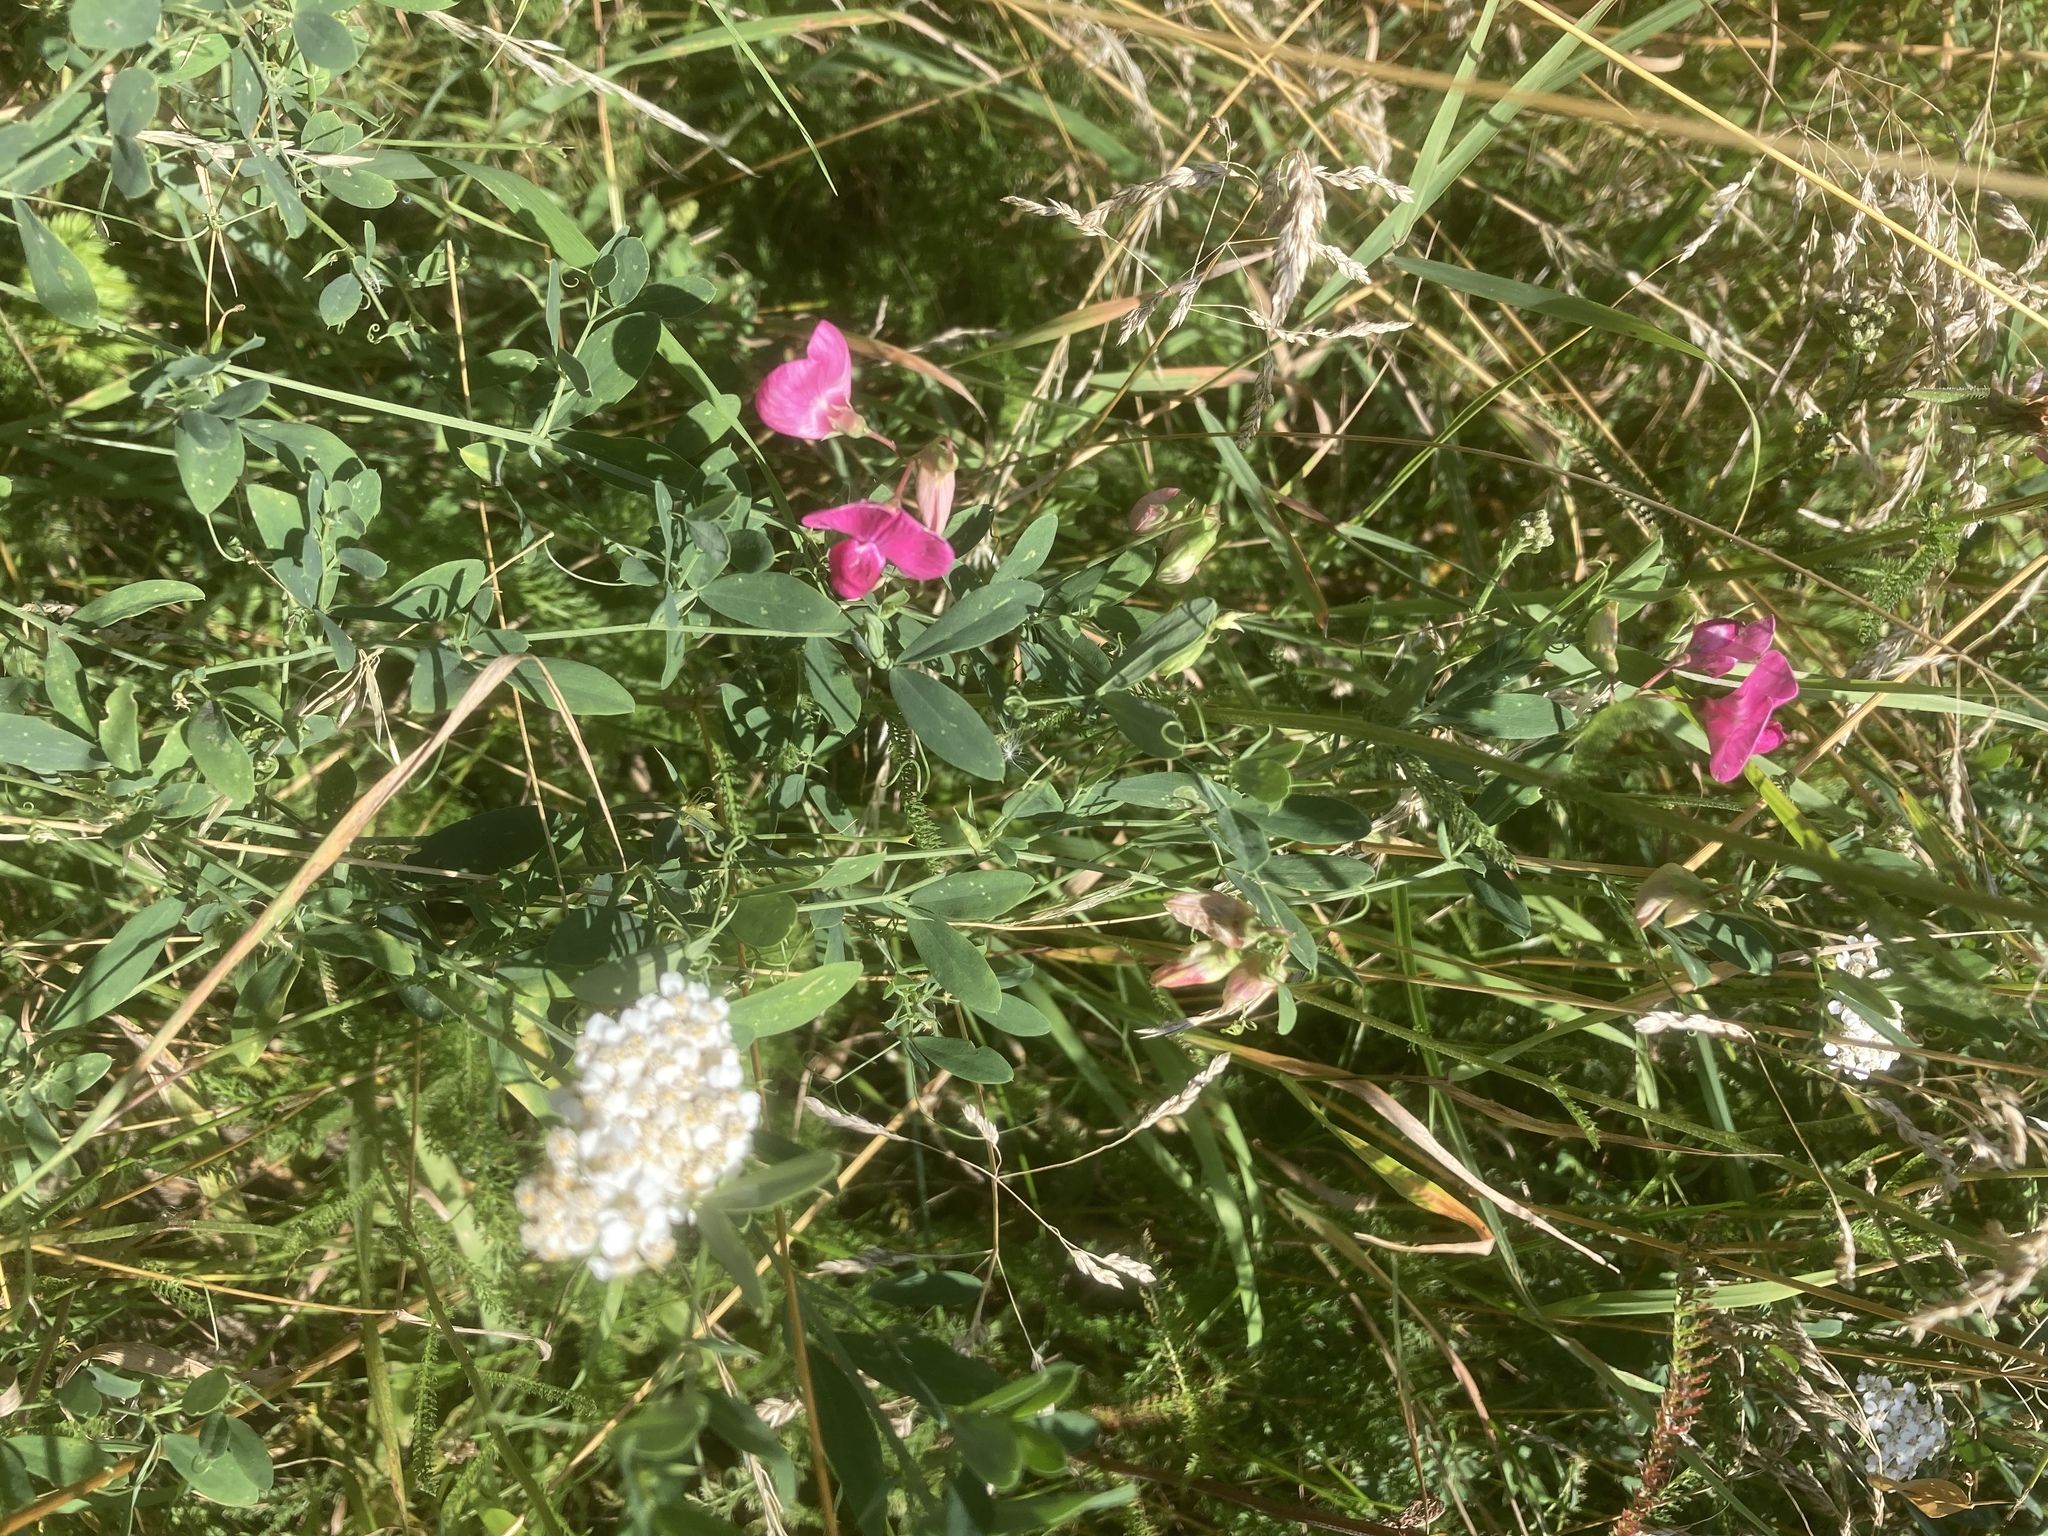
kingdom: Plantae
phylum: Tracheophyta
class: Magnoliopsida
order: Fabales
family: Fabaceae
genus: Lathyrus
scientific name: Lathyrus tuberosus
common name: Tuberous pea
